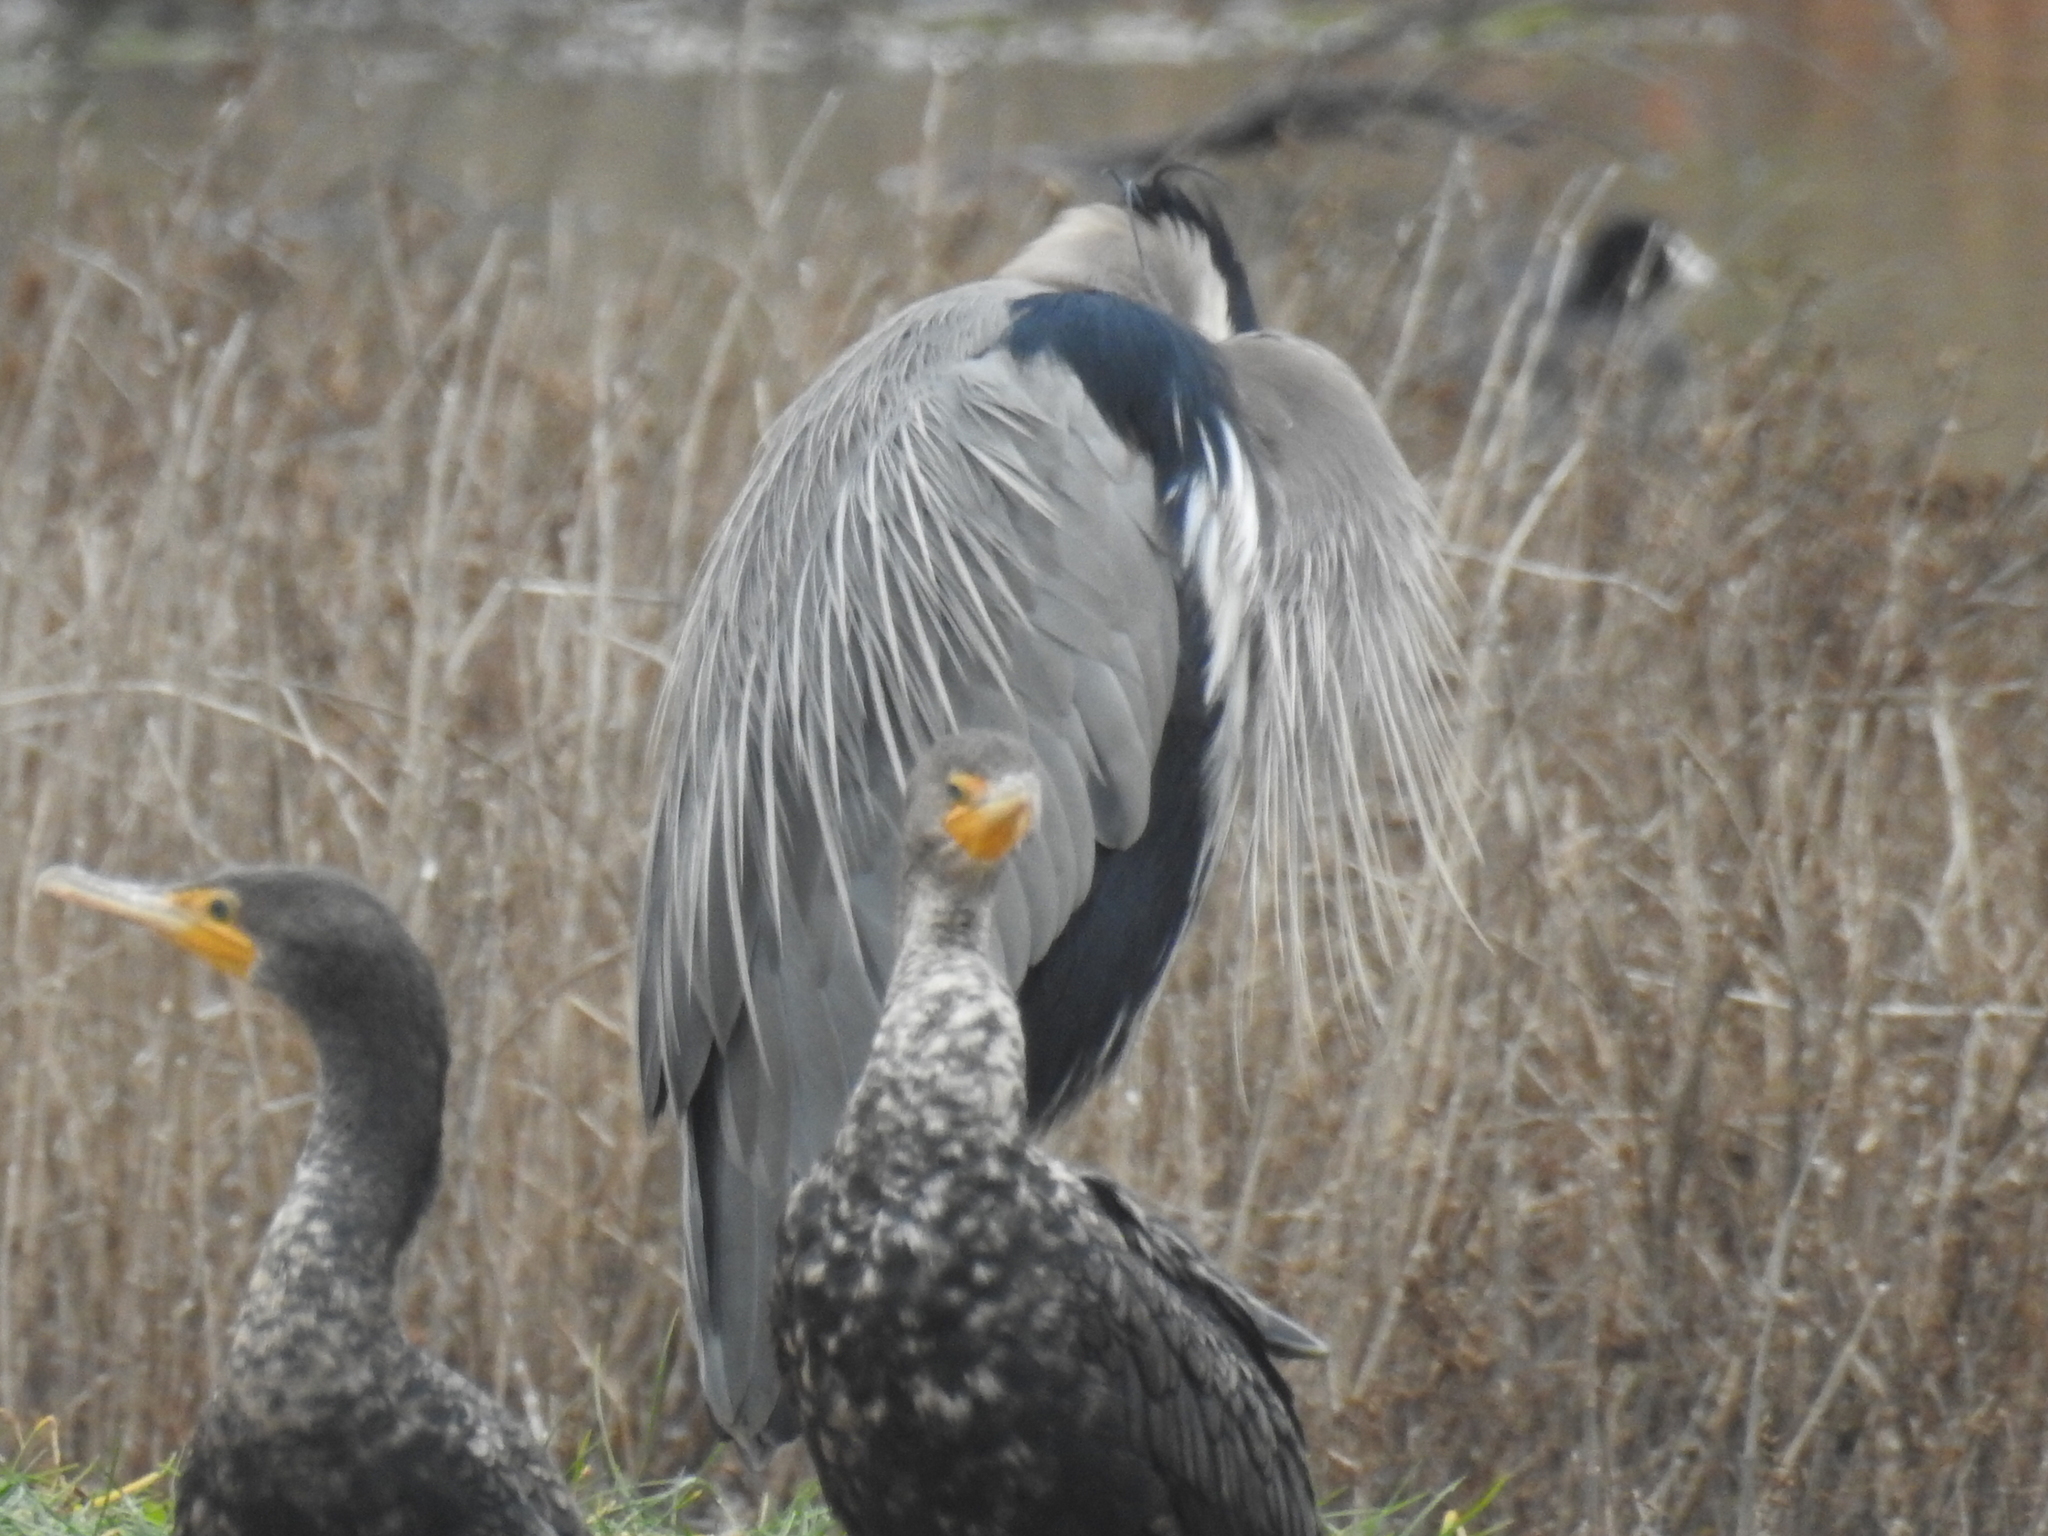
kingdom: Animalia
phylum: Chordata
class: Aves
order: Pelecaniformes
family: Ardeidae
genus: Ardea
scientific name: Ardea herodias
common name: Great blue heron
